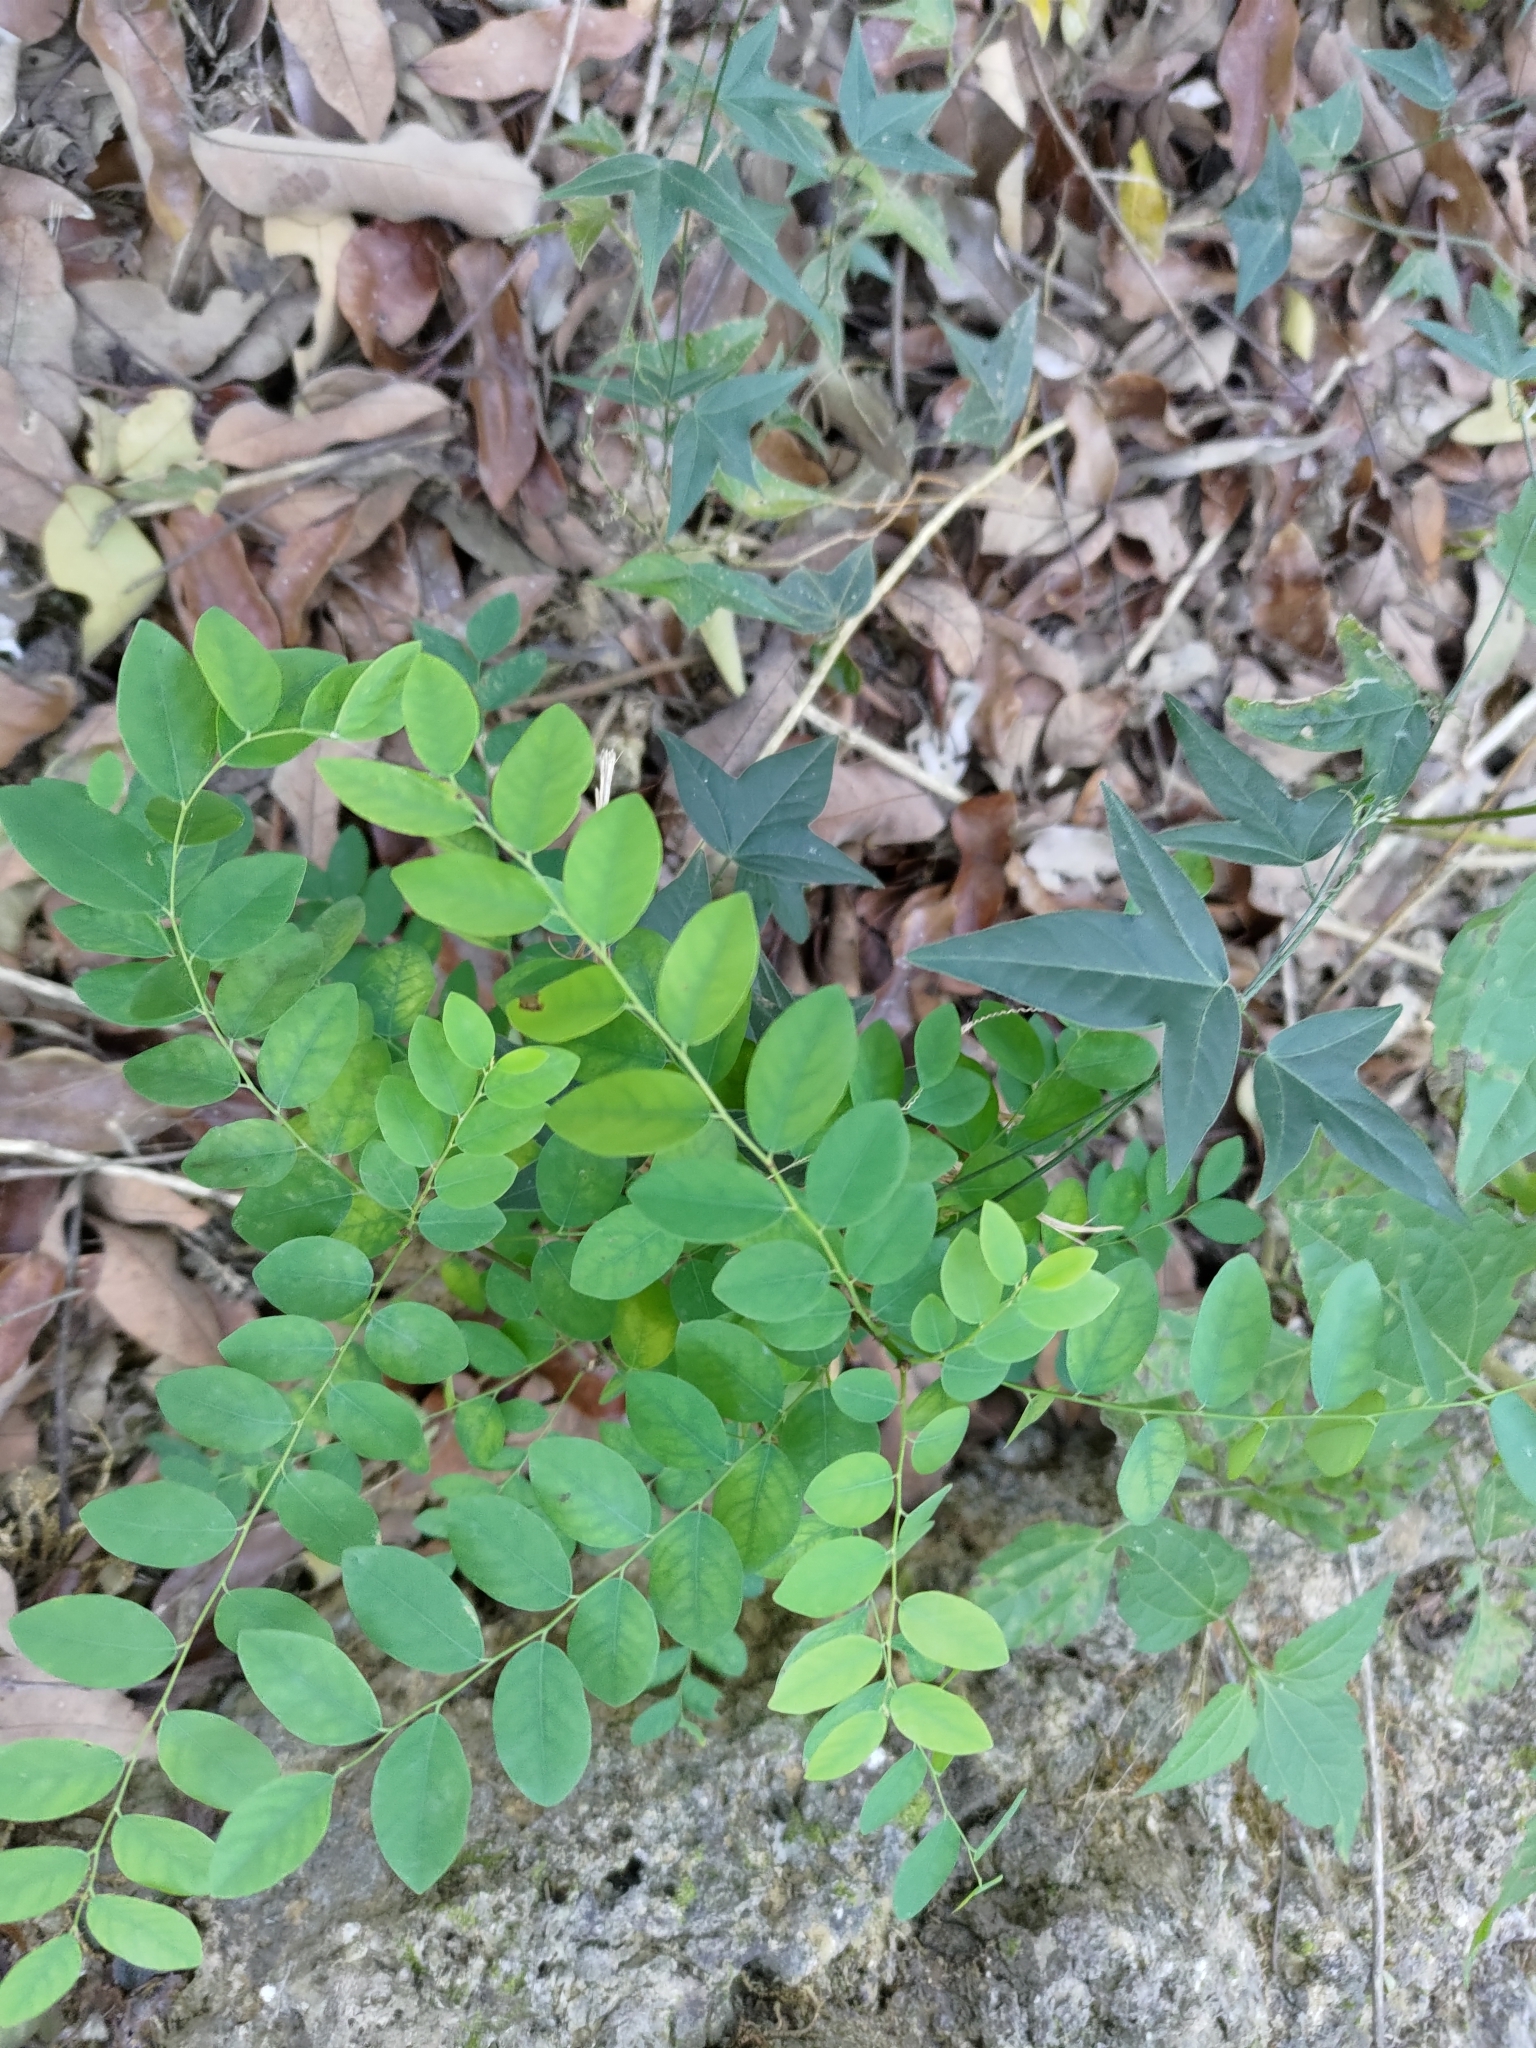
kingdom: Plantae
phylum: Tracheophyta
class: Magnoliopsida
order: Malpighiales
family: Phyllanthaceae
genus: Phyllanthus
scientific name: Phyllanthus tenellus
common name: Mascarene island leaf-flower
